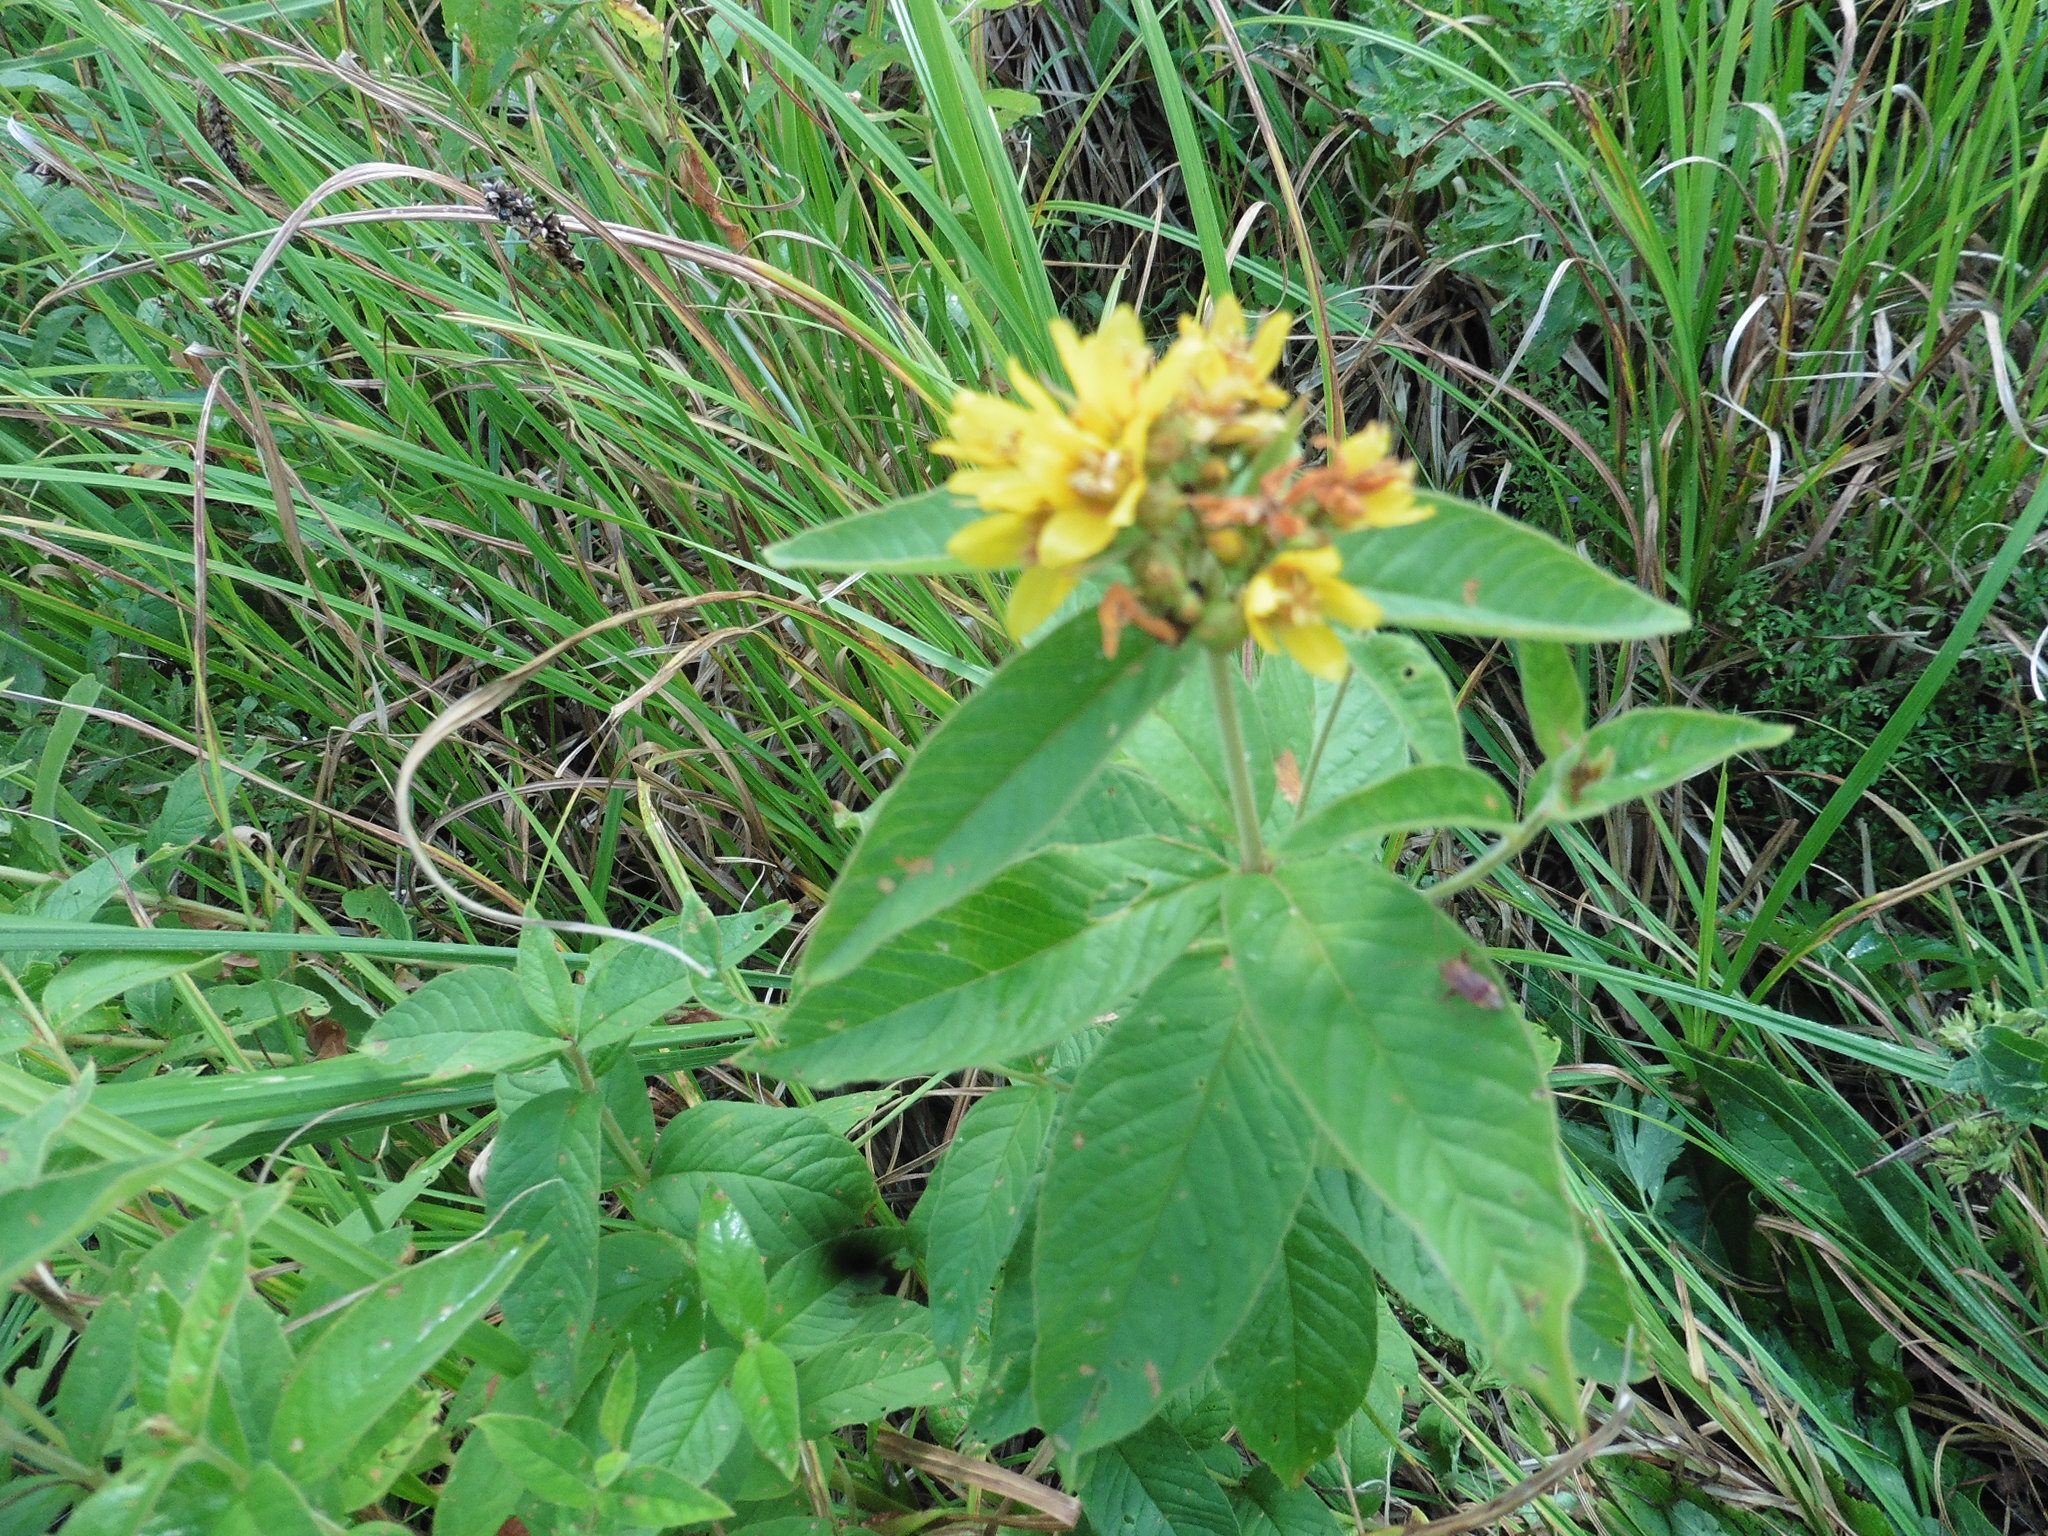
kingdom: Plantae
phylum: Tracheophyta
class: Magnoliopsida
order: Ericales
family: Primulaceae
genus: Lysimachia
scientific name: Lysimachia vulgaris
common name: Yellow loosestrife
